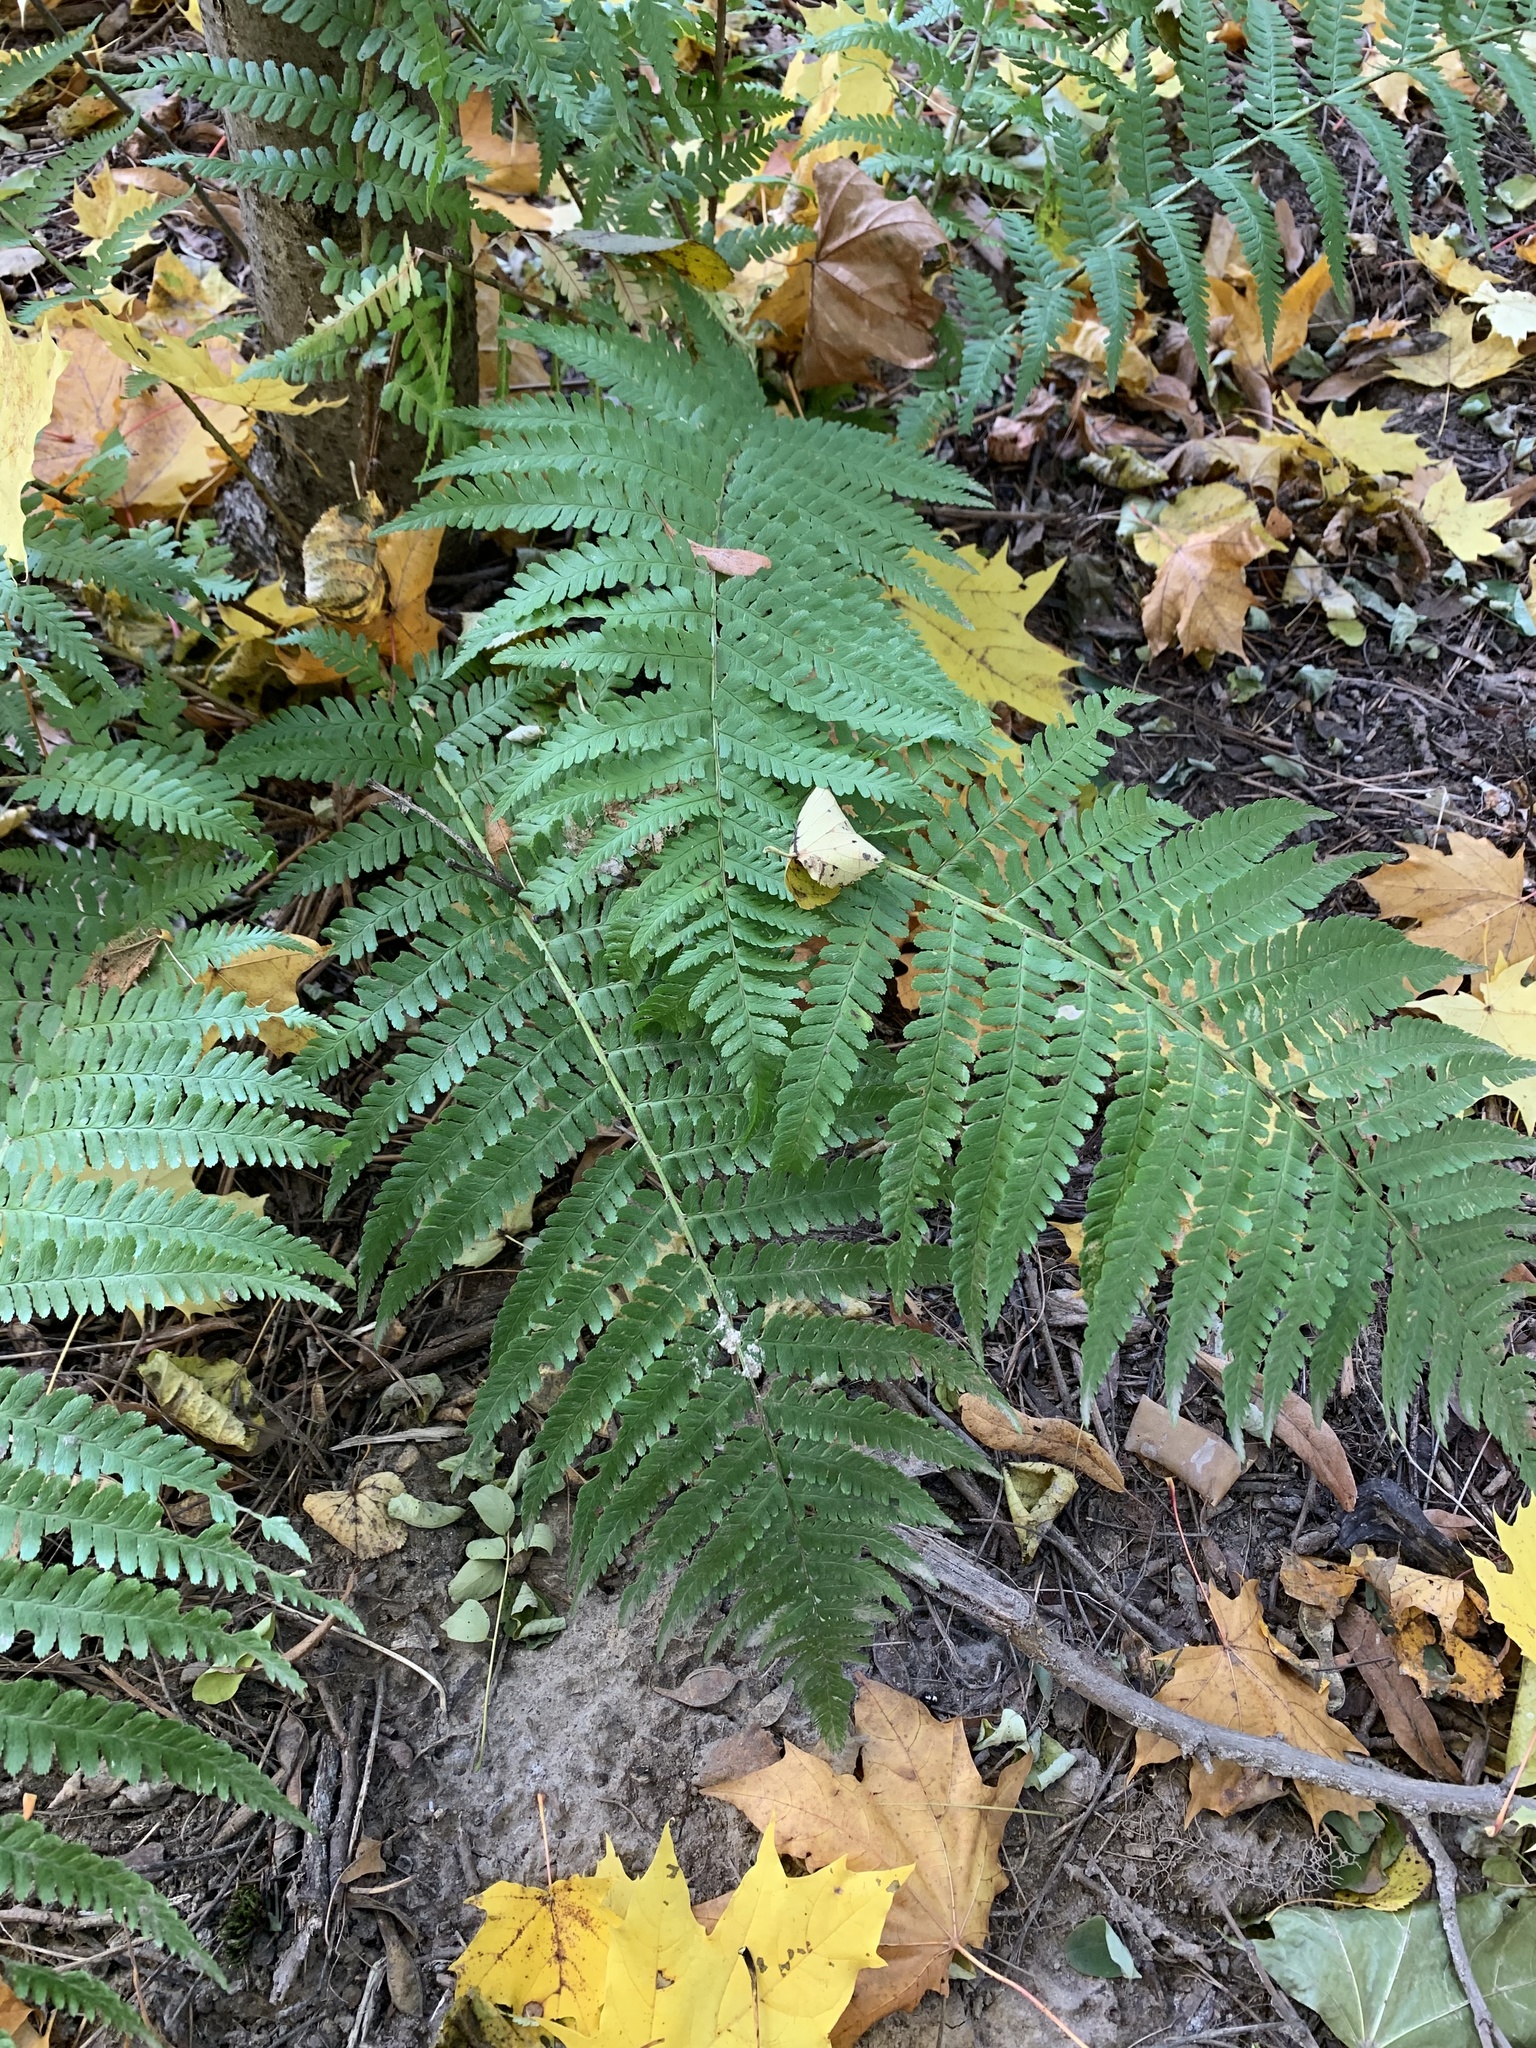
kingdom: Plantae
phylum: Tracheophyta
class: Polypodiopsida
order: Polypodiales
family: Dryopteridaceae
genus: Dryopteris
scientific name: Dryopteris filix-mas
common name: Male fern
